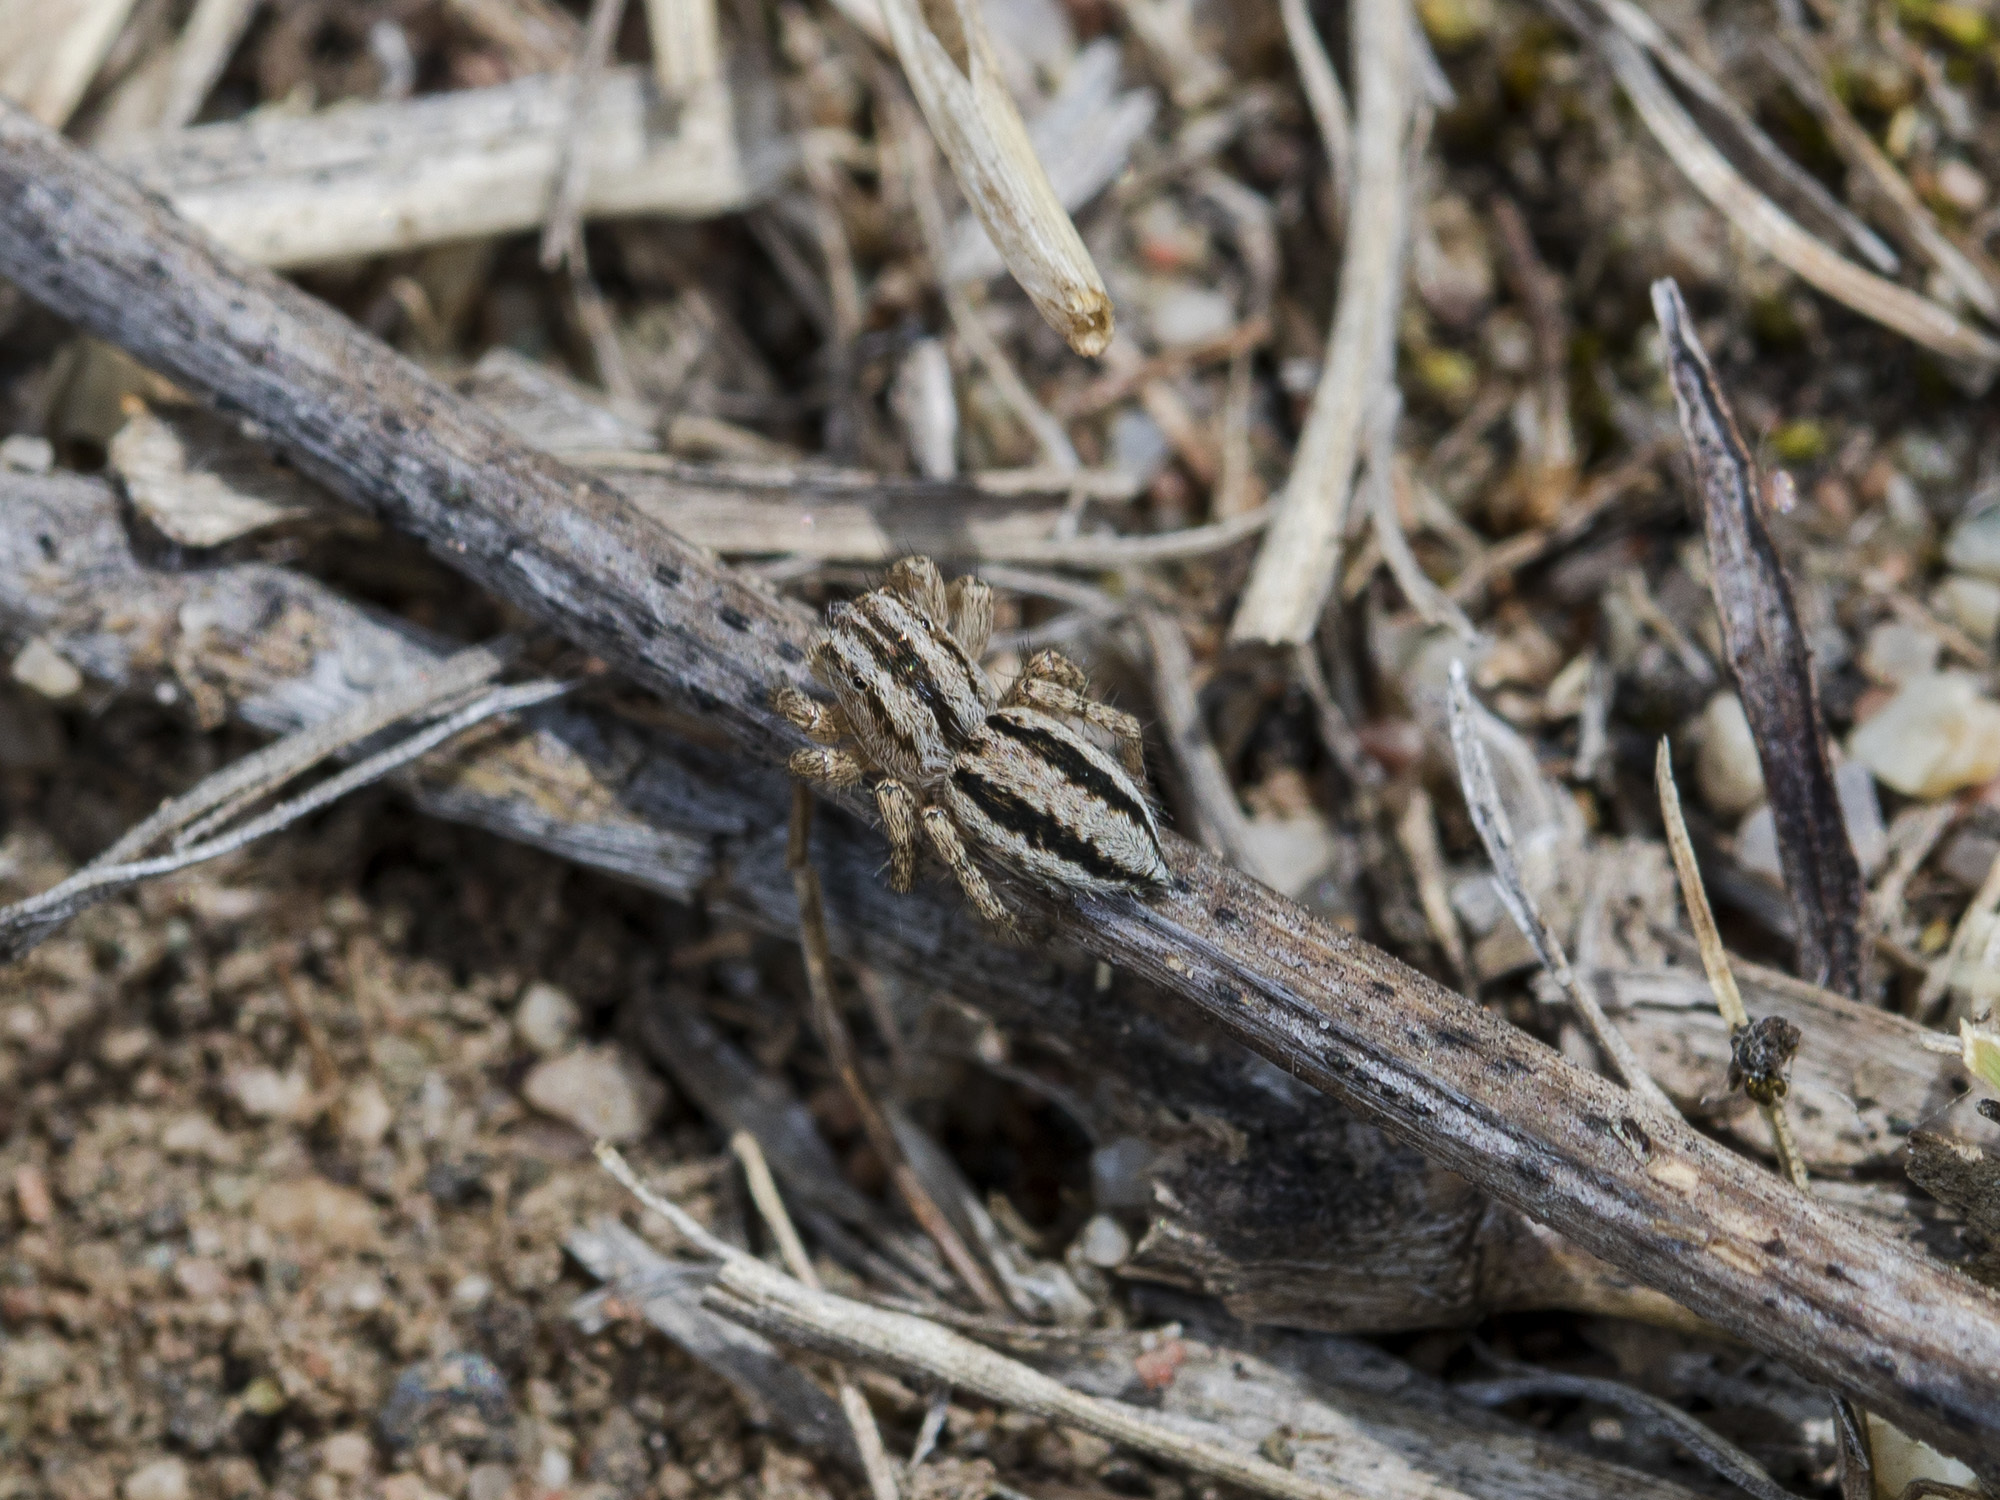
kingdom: Animalia
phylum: Arthropoda
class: Arachnida
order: Araneae
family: Salticidae
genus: Aelurillus
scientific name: Aelurillus m-nigrum
